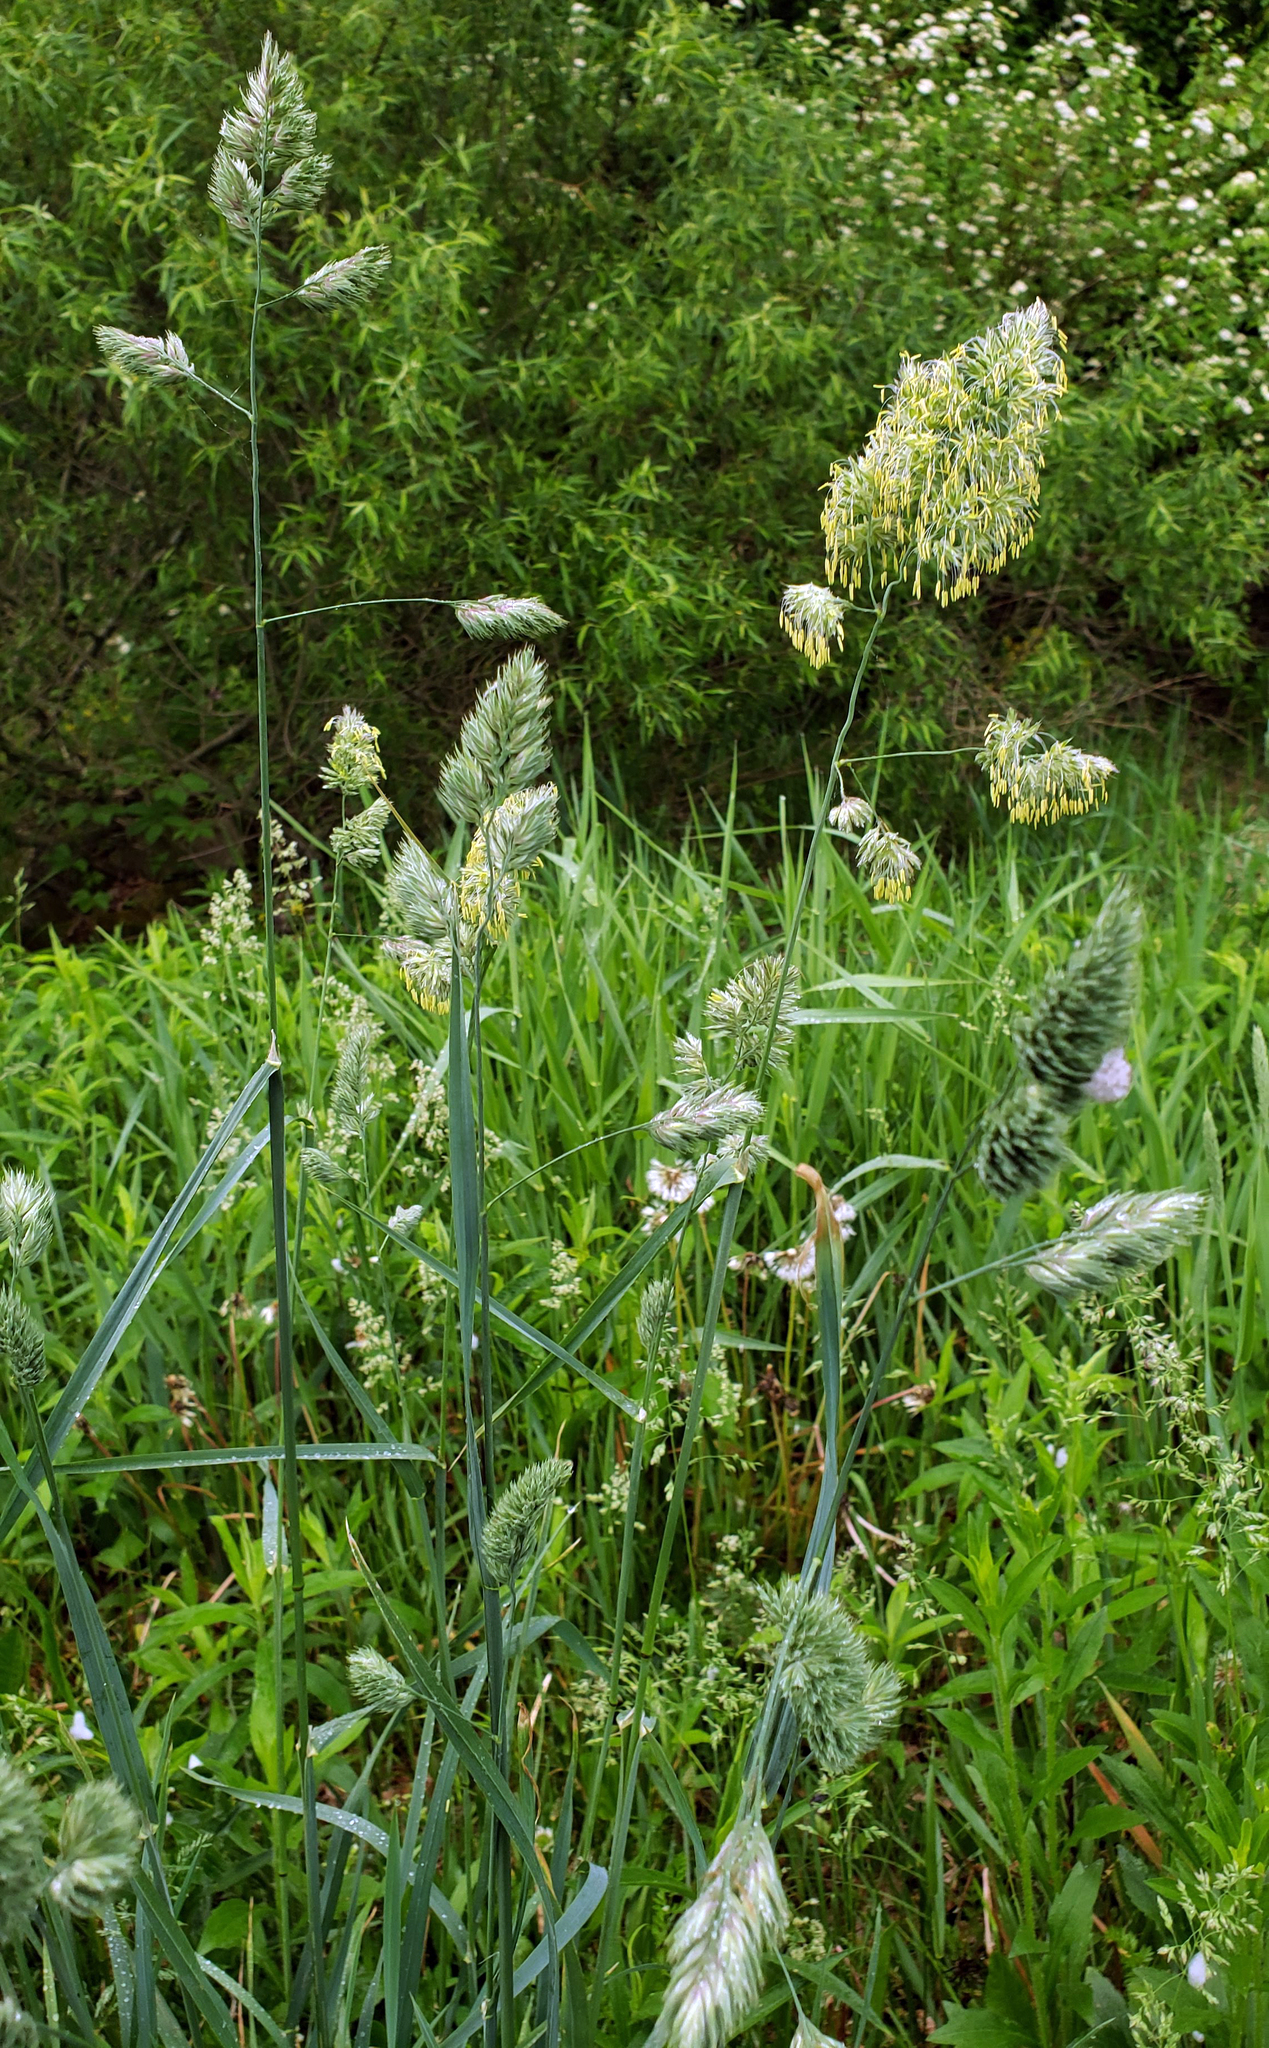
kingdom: Plantae
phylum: Tracheophyta
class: Liliopsida
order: Poales
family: Poaceae
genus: Dactylis
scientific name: Dactylis glomerata
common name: Orchardgrass
